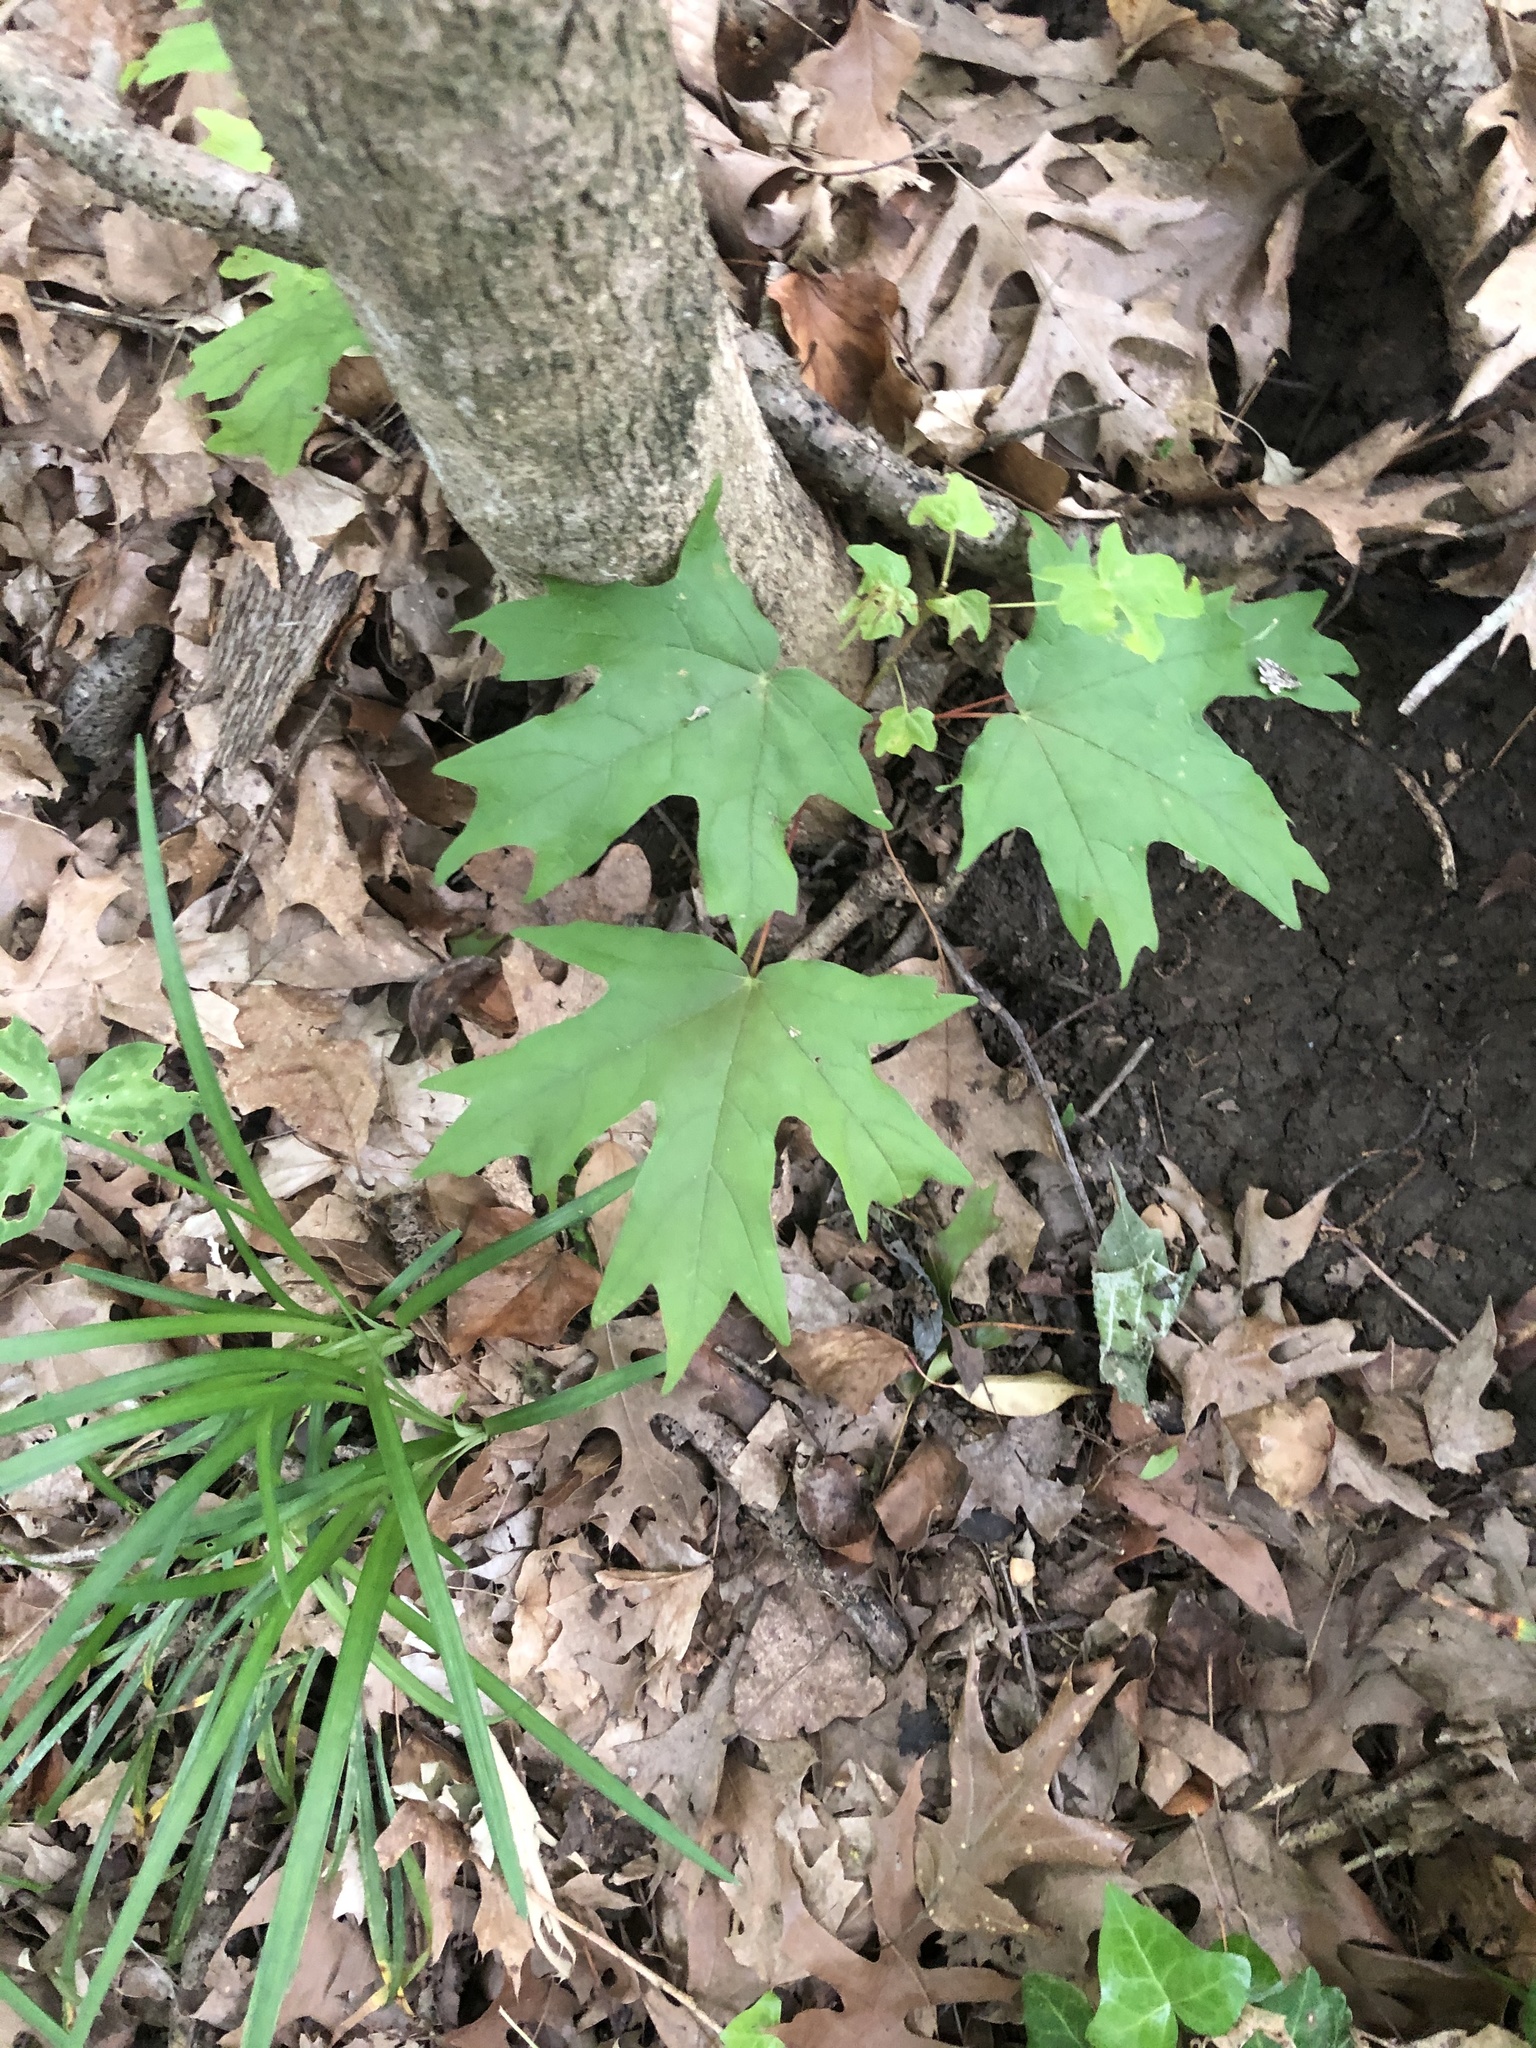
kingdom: Plantae
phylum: Tracheophyta
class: Magnoliopsida
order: Sapindales
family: Sapindaceae
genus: Acer
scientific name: Acer floridanum
